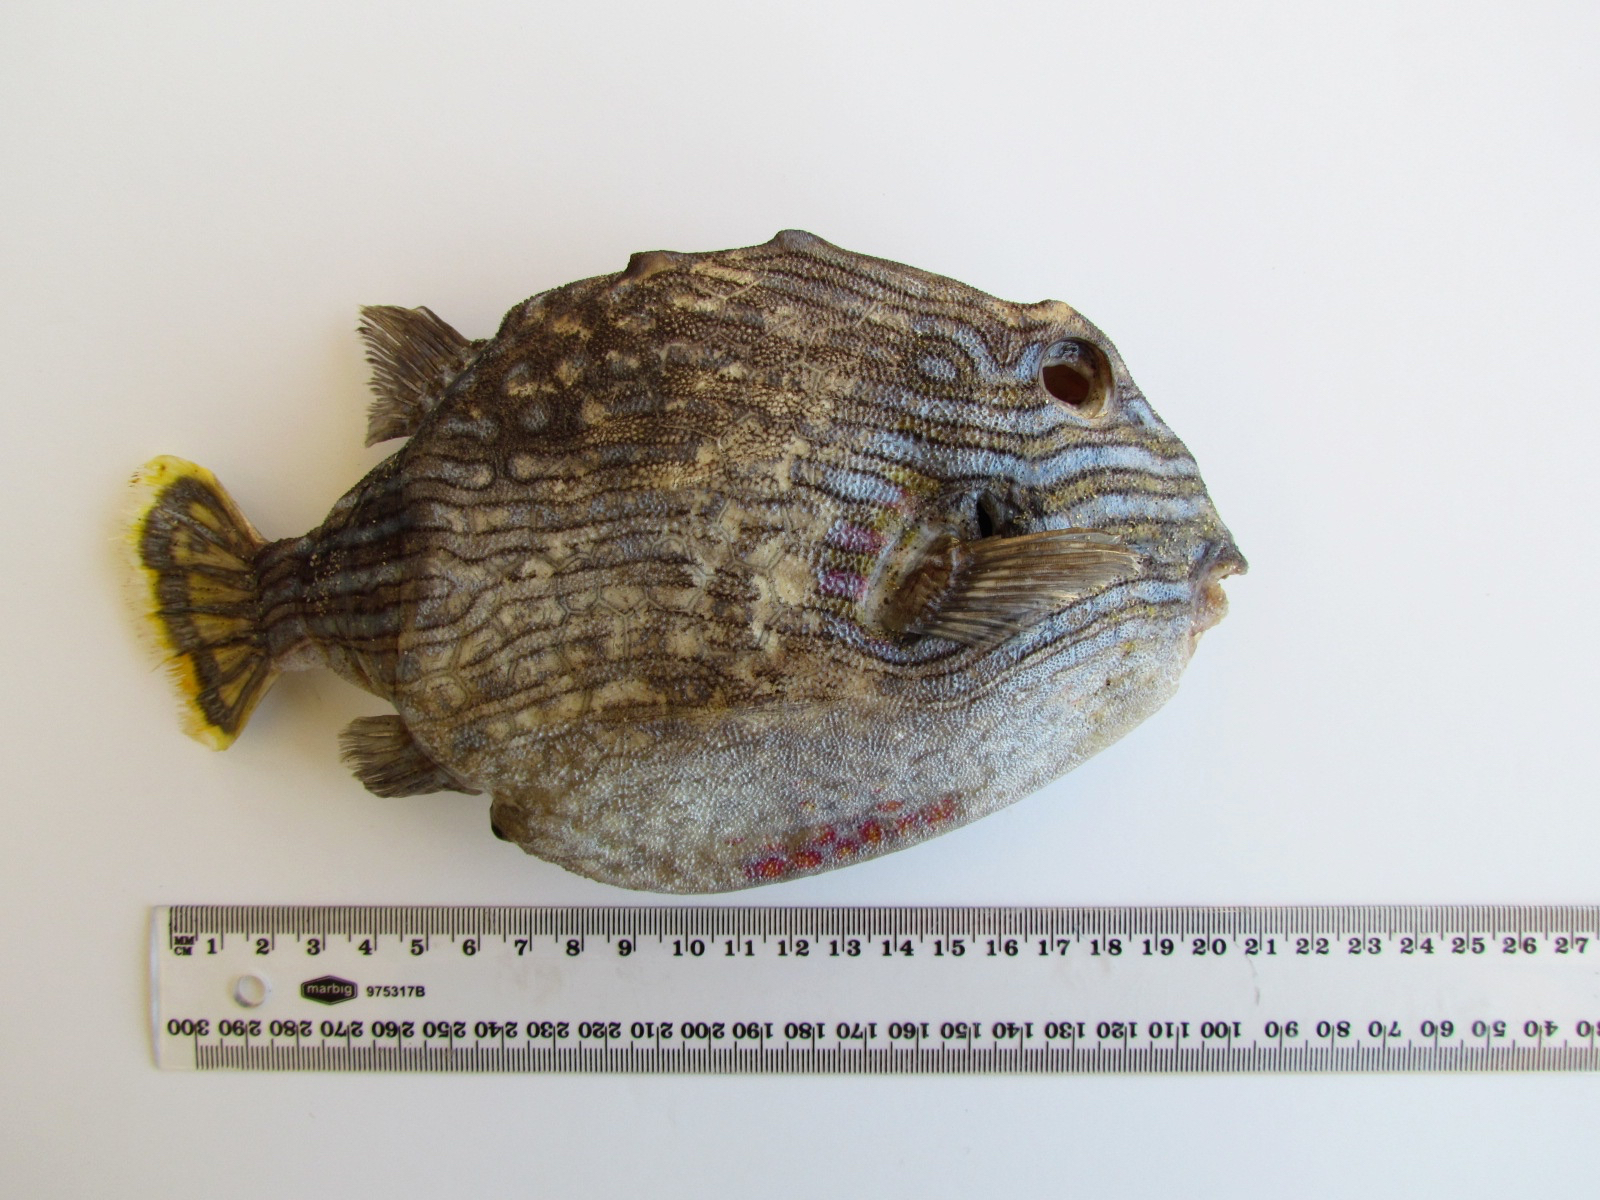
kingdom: Animalia
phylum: Chordata
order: Tetraodontiformes
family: Aracanidae
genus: Aracana
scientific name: Aracana aurita
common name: Shaw’s cowfish
